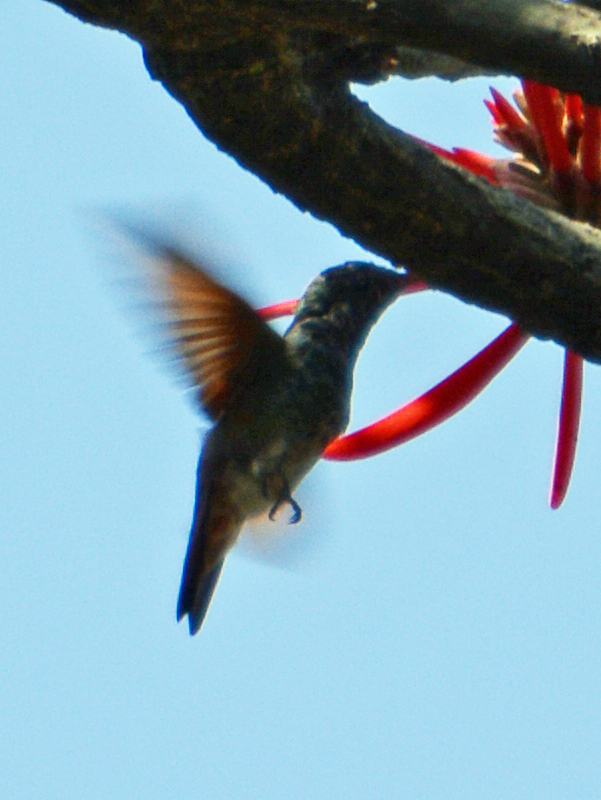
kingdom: Animalia
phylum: Chordata
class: Aves
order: Apodiformes
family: Trochilidae
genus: Saucerottia
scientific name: Saucerottia beryllina
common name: Berylline hummingbird
